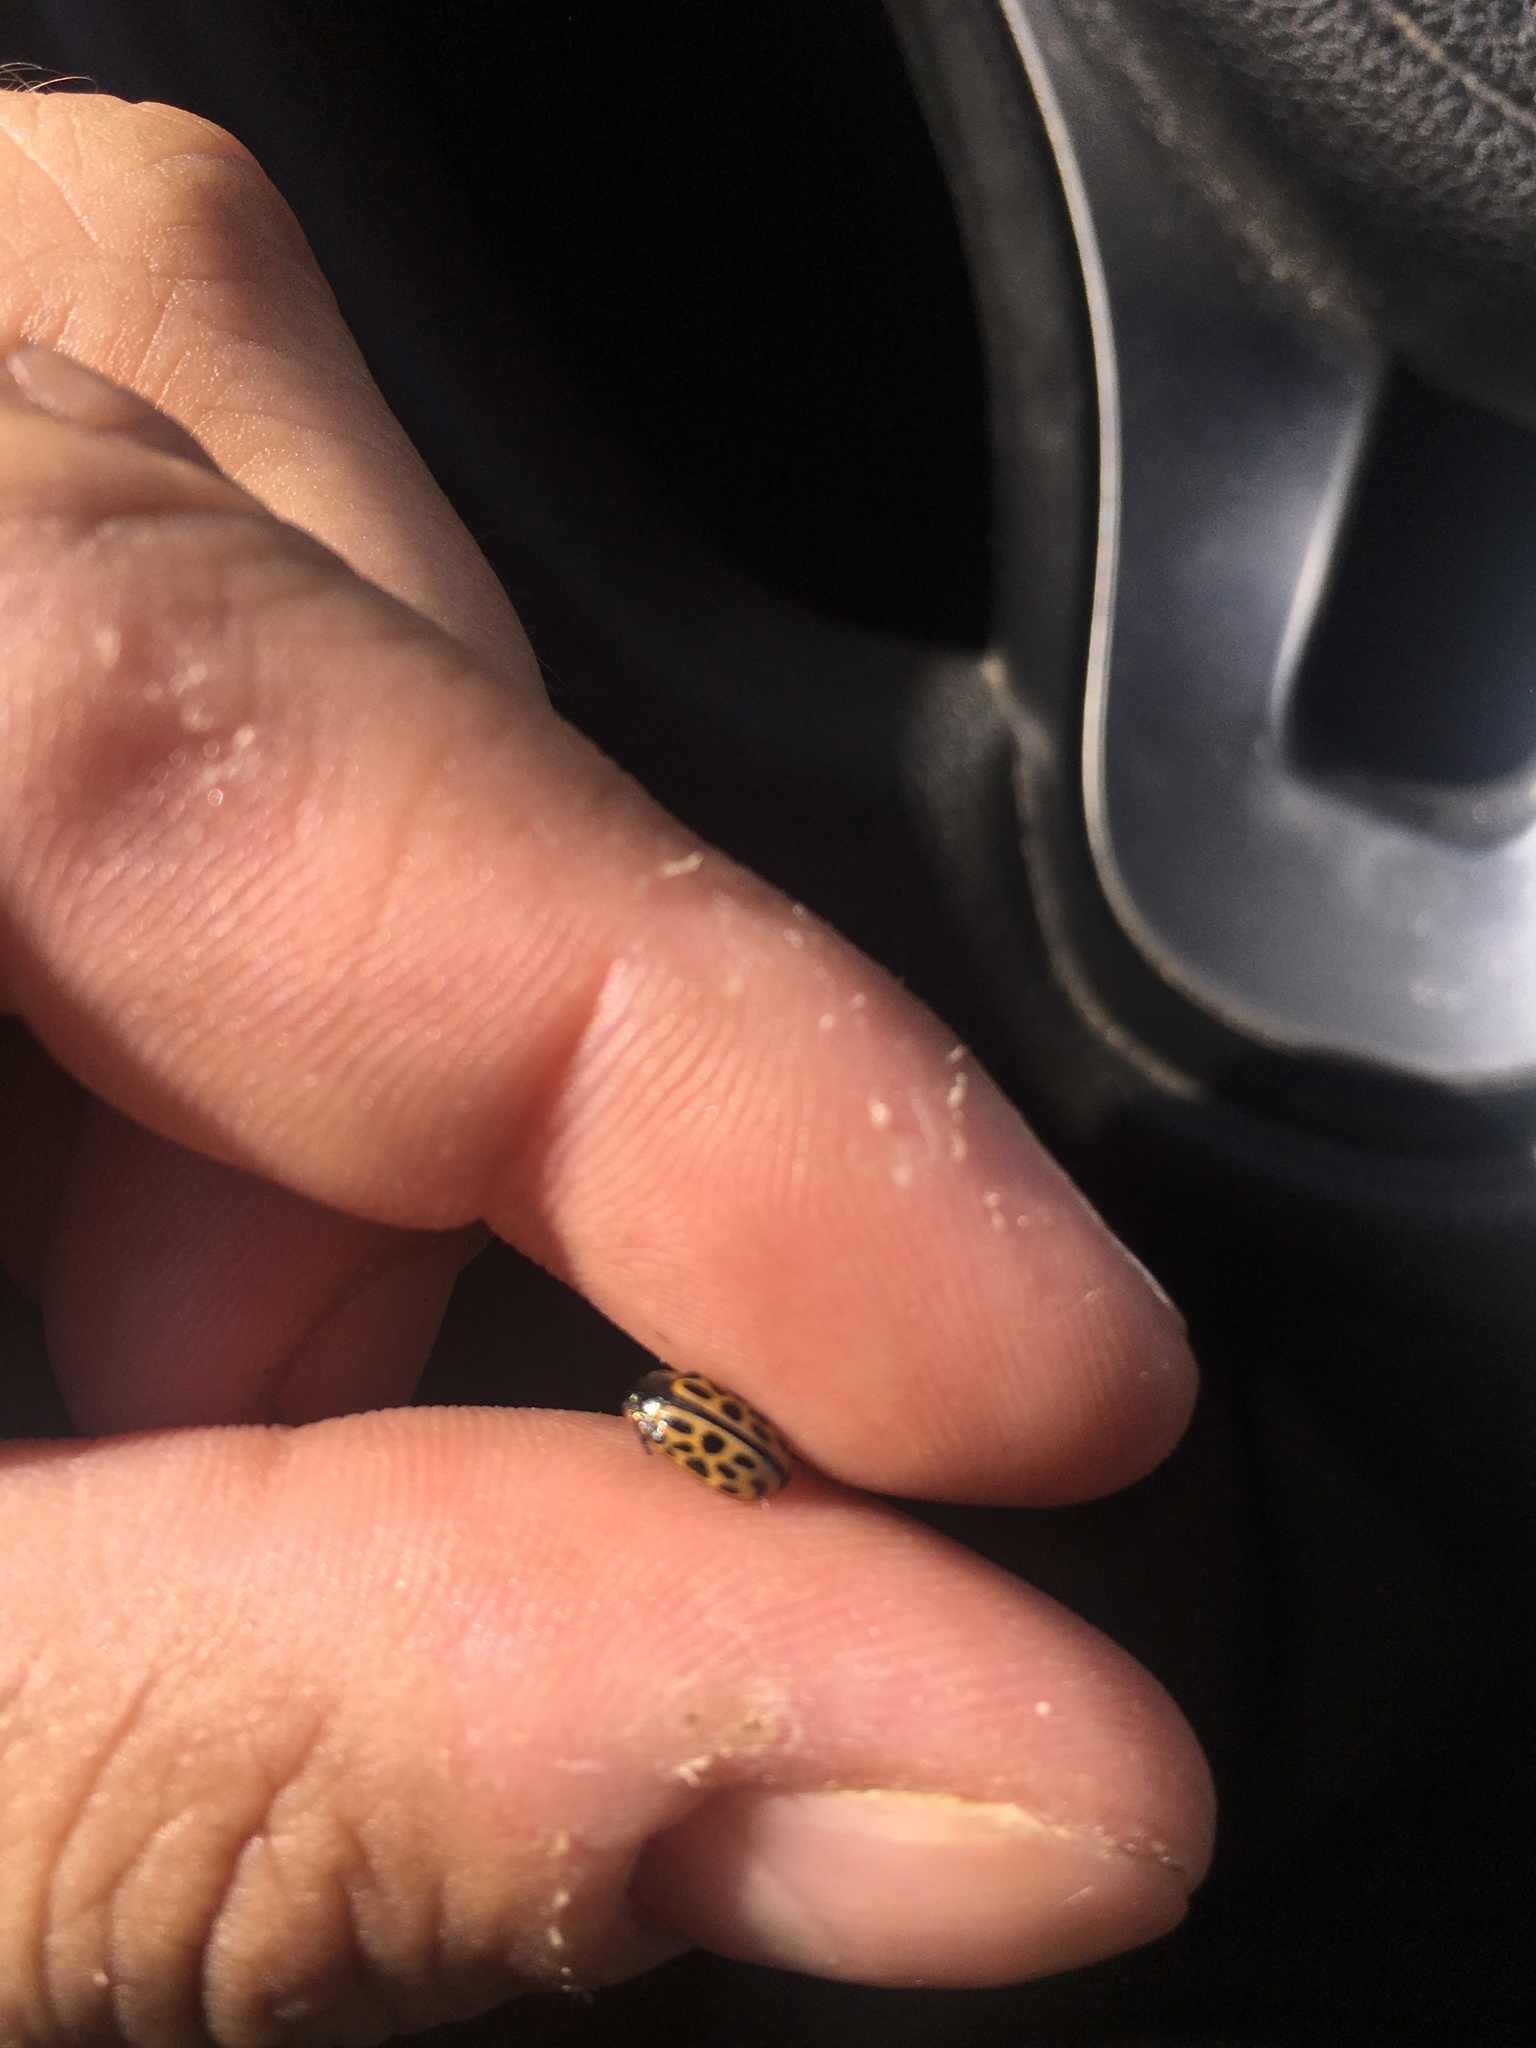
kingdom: Animalia
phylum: Arthropoda
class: Insecta
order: Coleoptera
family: Chrysomelidae
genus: Chrysomela
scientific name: Chrysomela vigintipunctata
